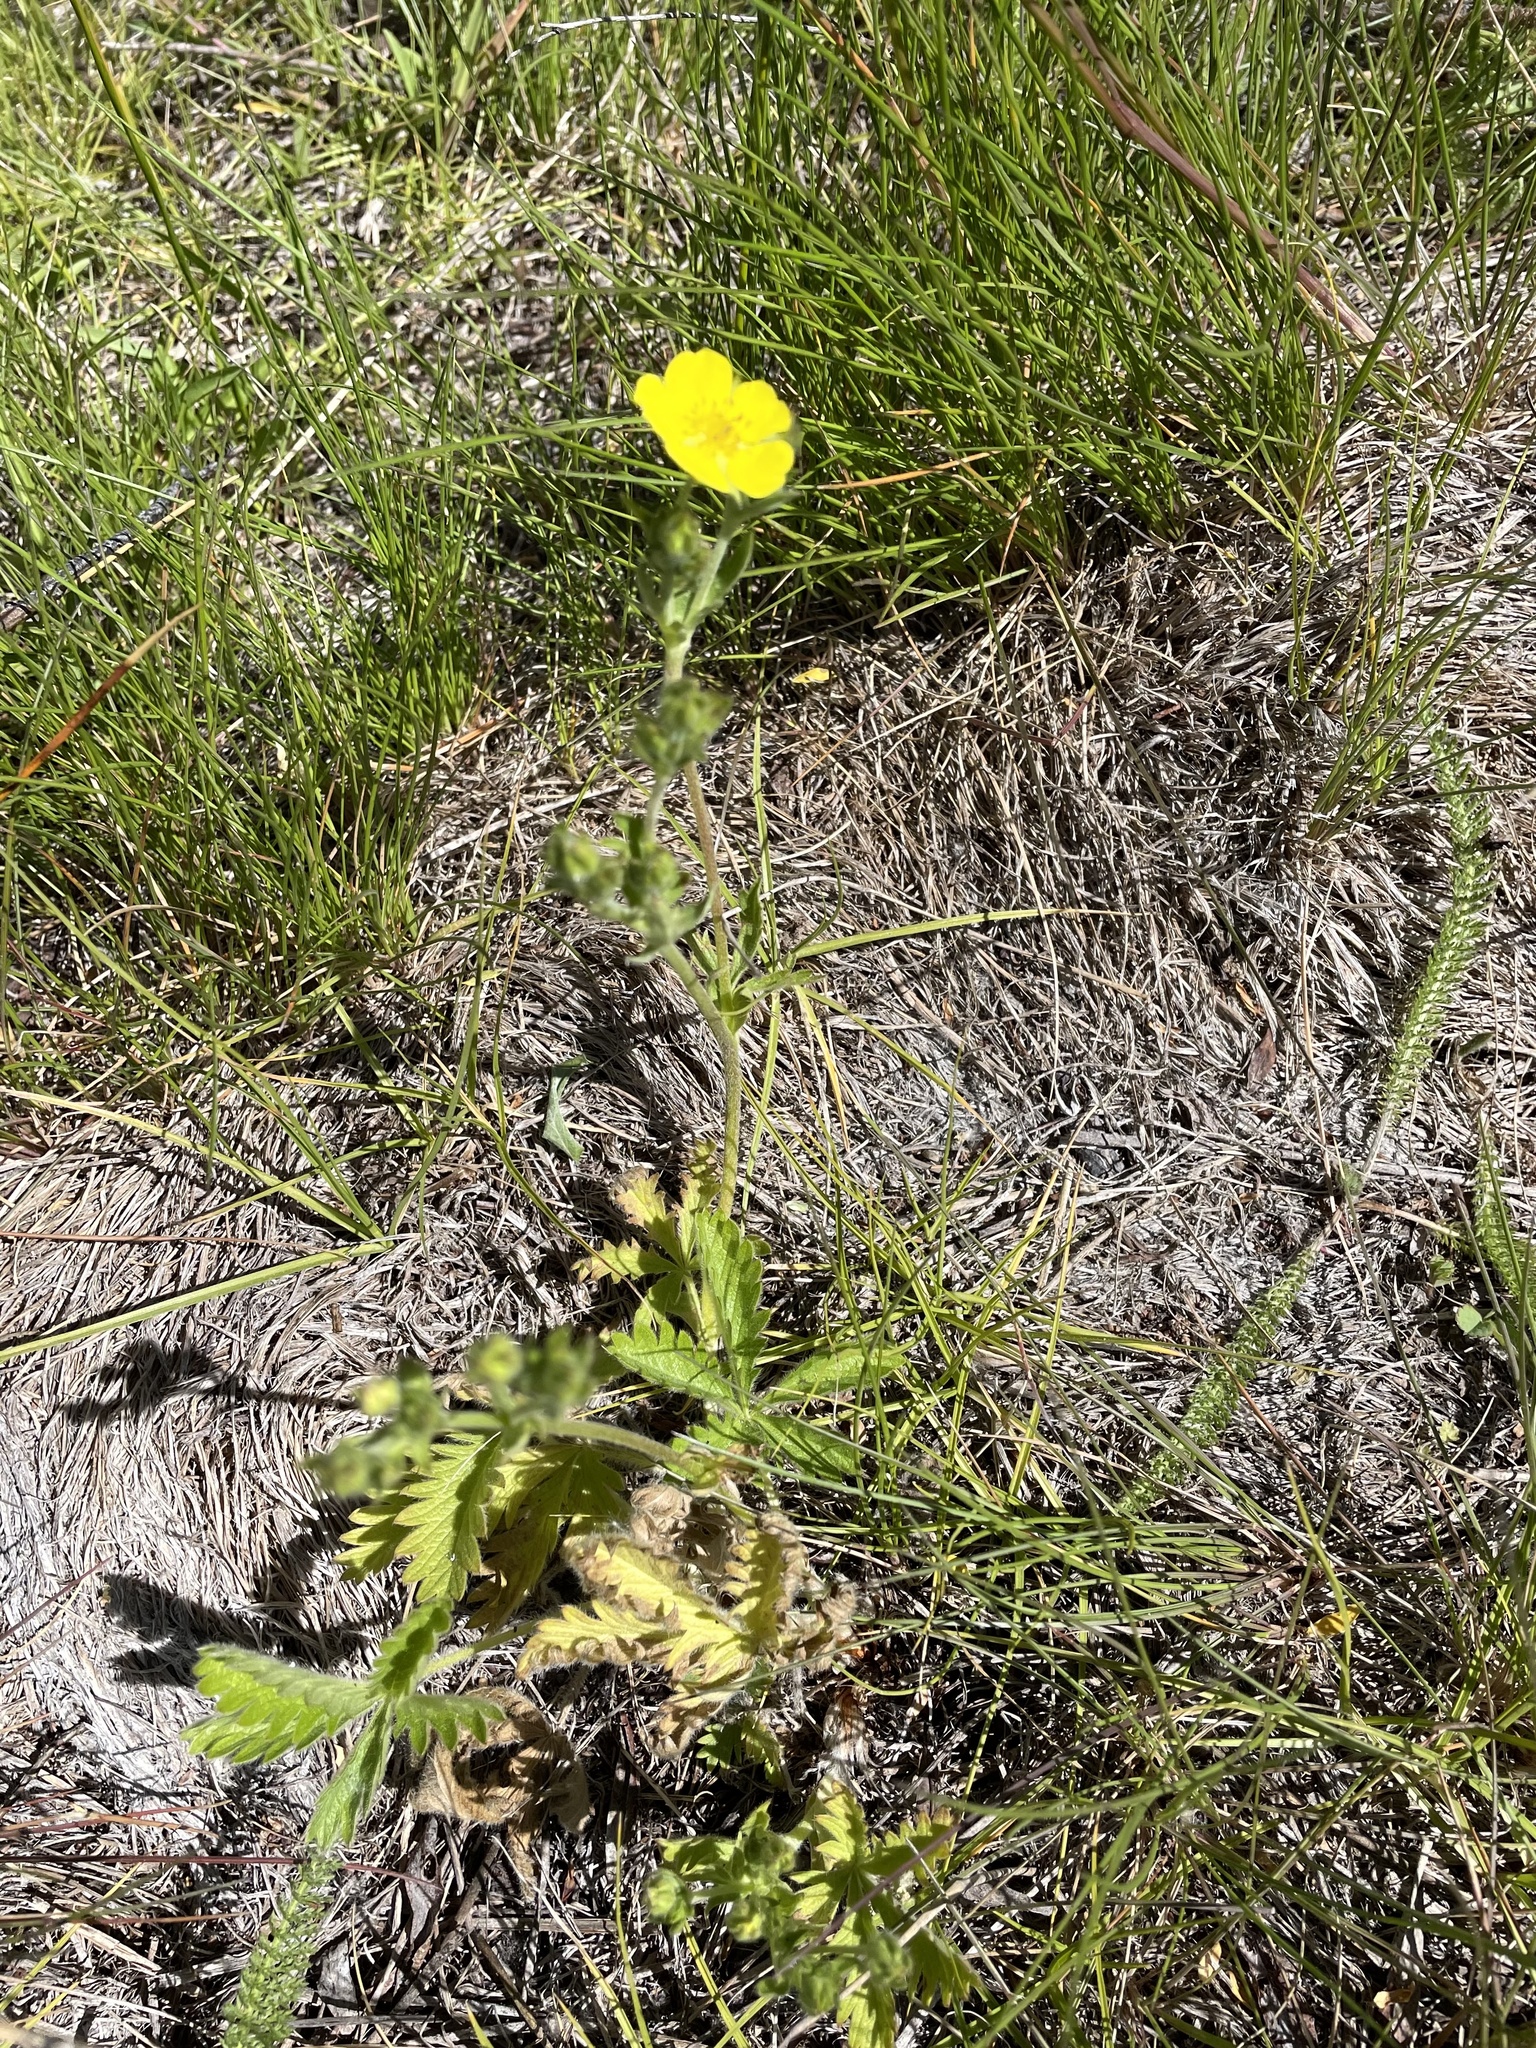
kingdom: Plantae
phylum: Tracheophyta
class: Magnoliopsida
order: Rosales
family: Rosaceae
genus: Potentilla
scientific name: Potentilla gracilis
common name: Graceful cinquefoil
